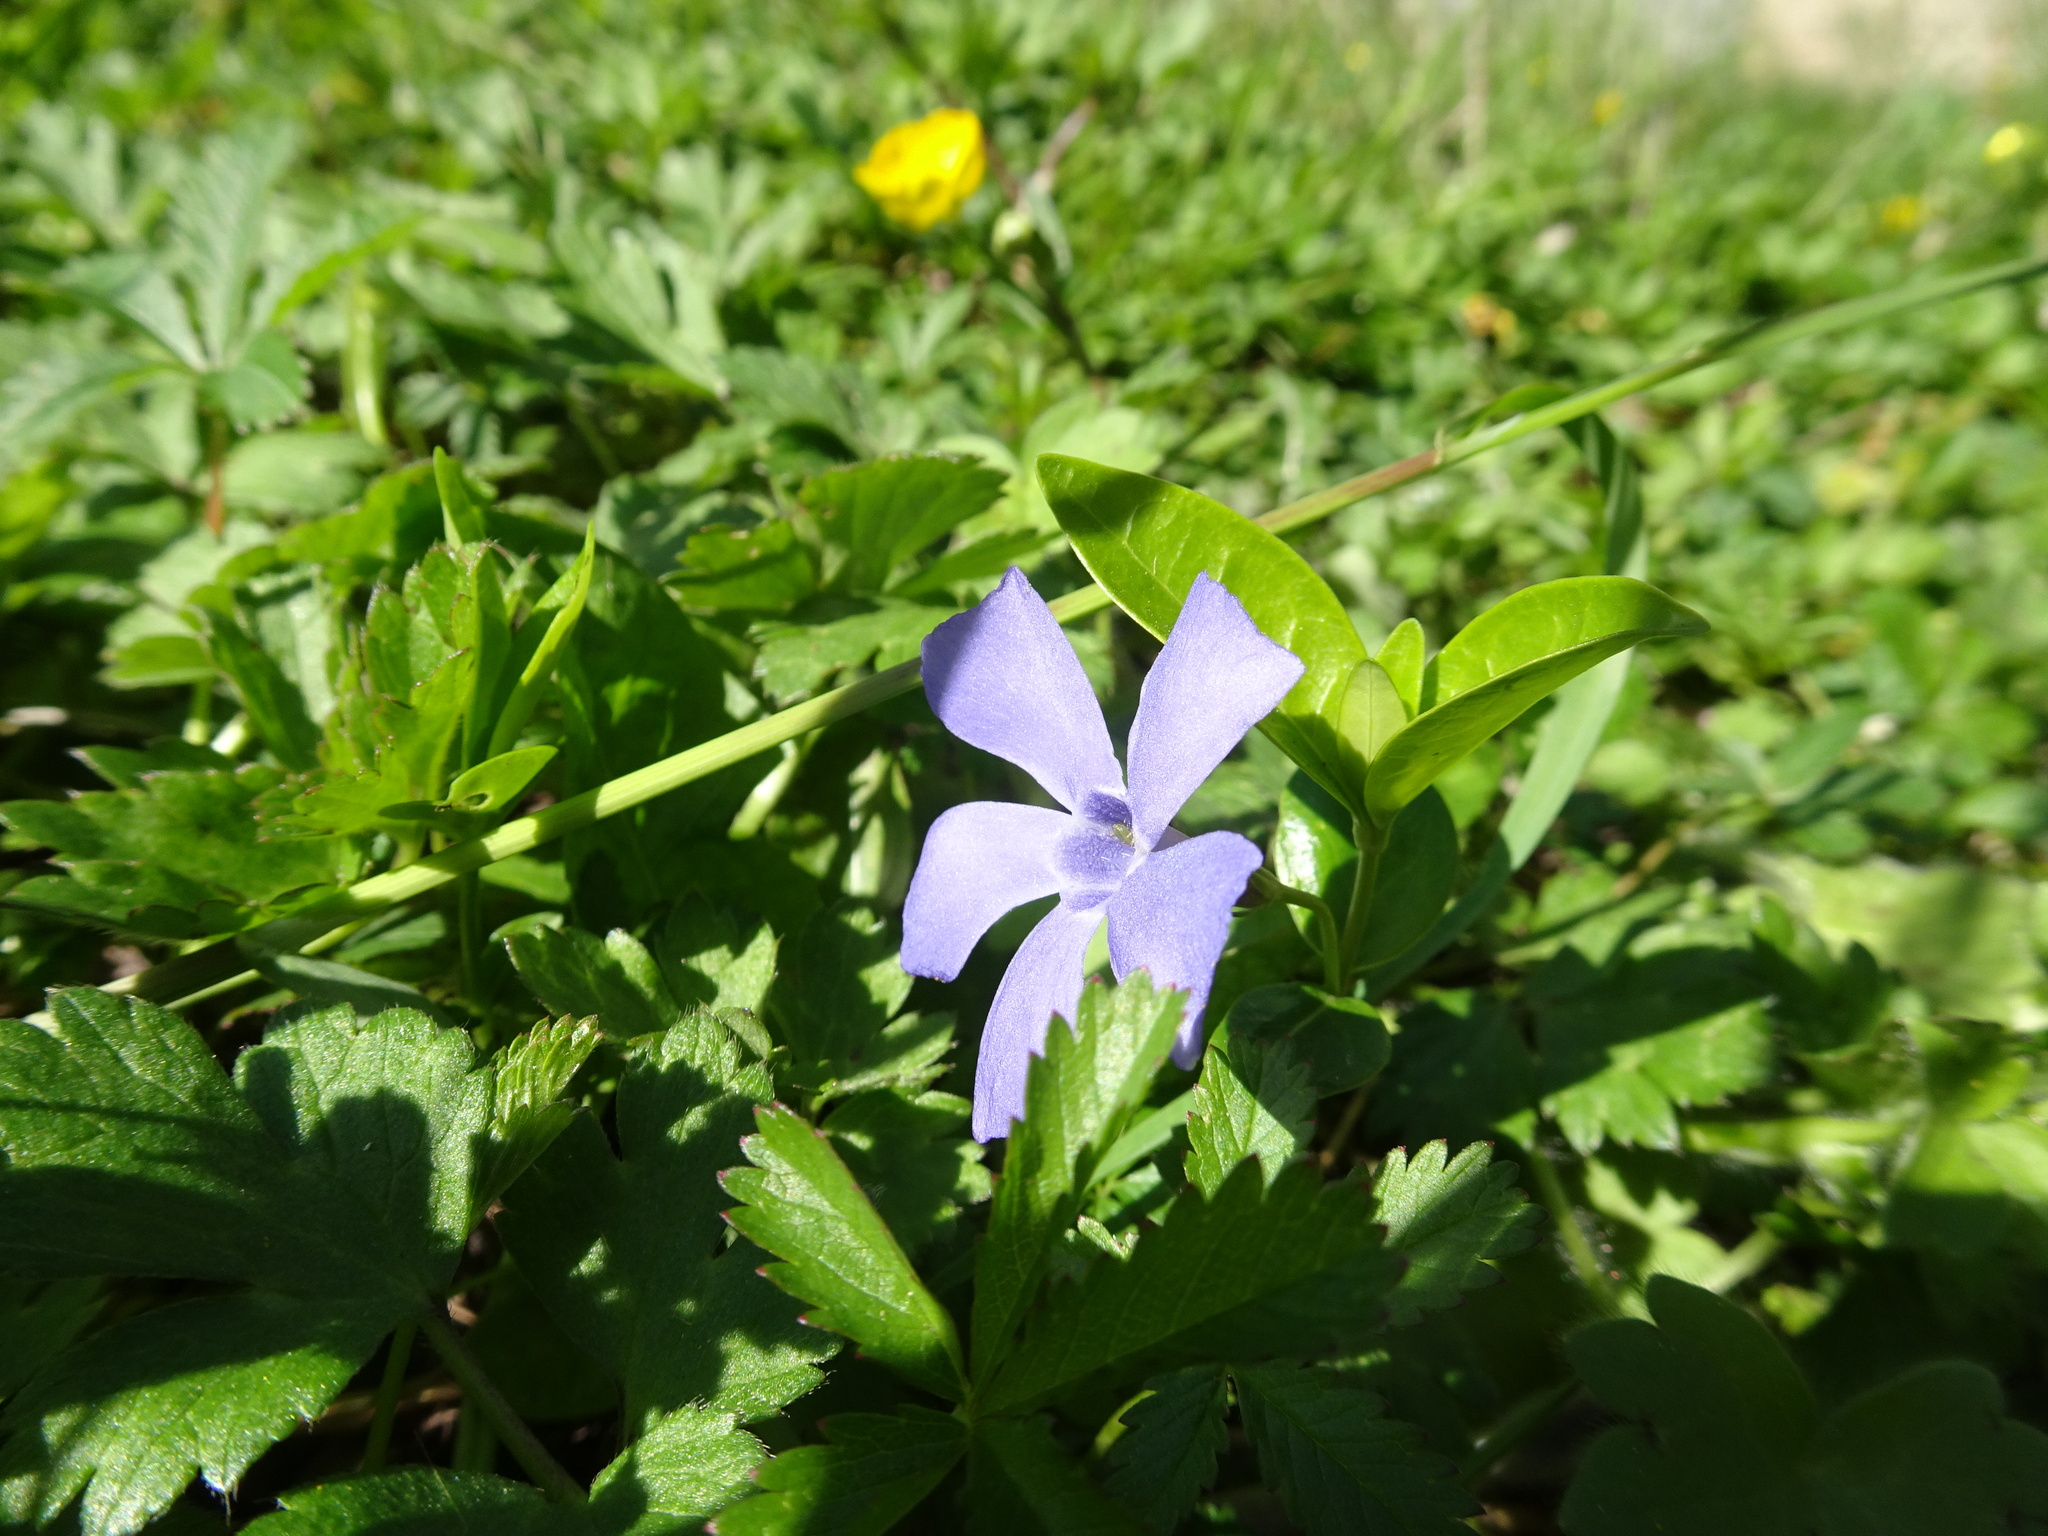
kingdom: Plantae
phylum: Tracheophyta
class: Magnoliopsida
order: Gentianales
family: Apocynaceae
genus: Vinca
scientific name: Vinca minor
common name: Lesser periwinkle
